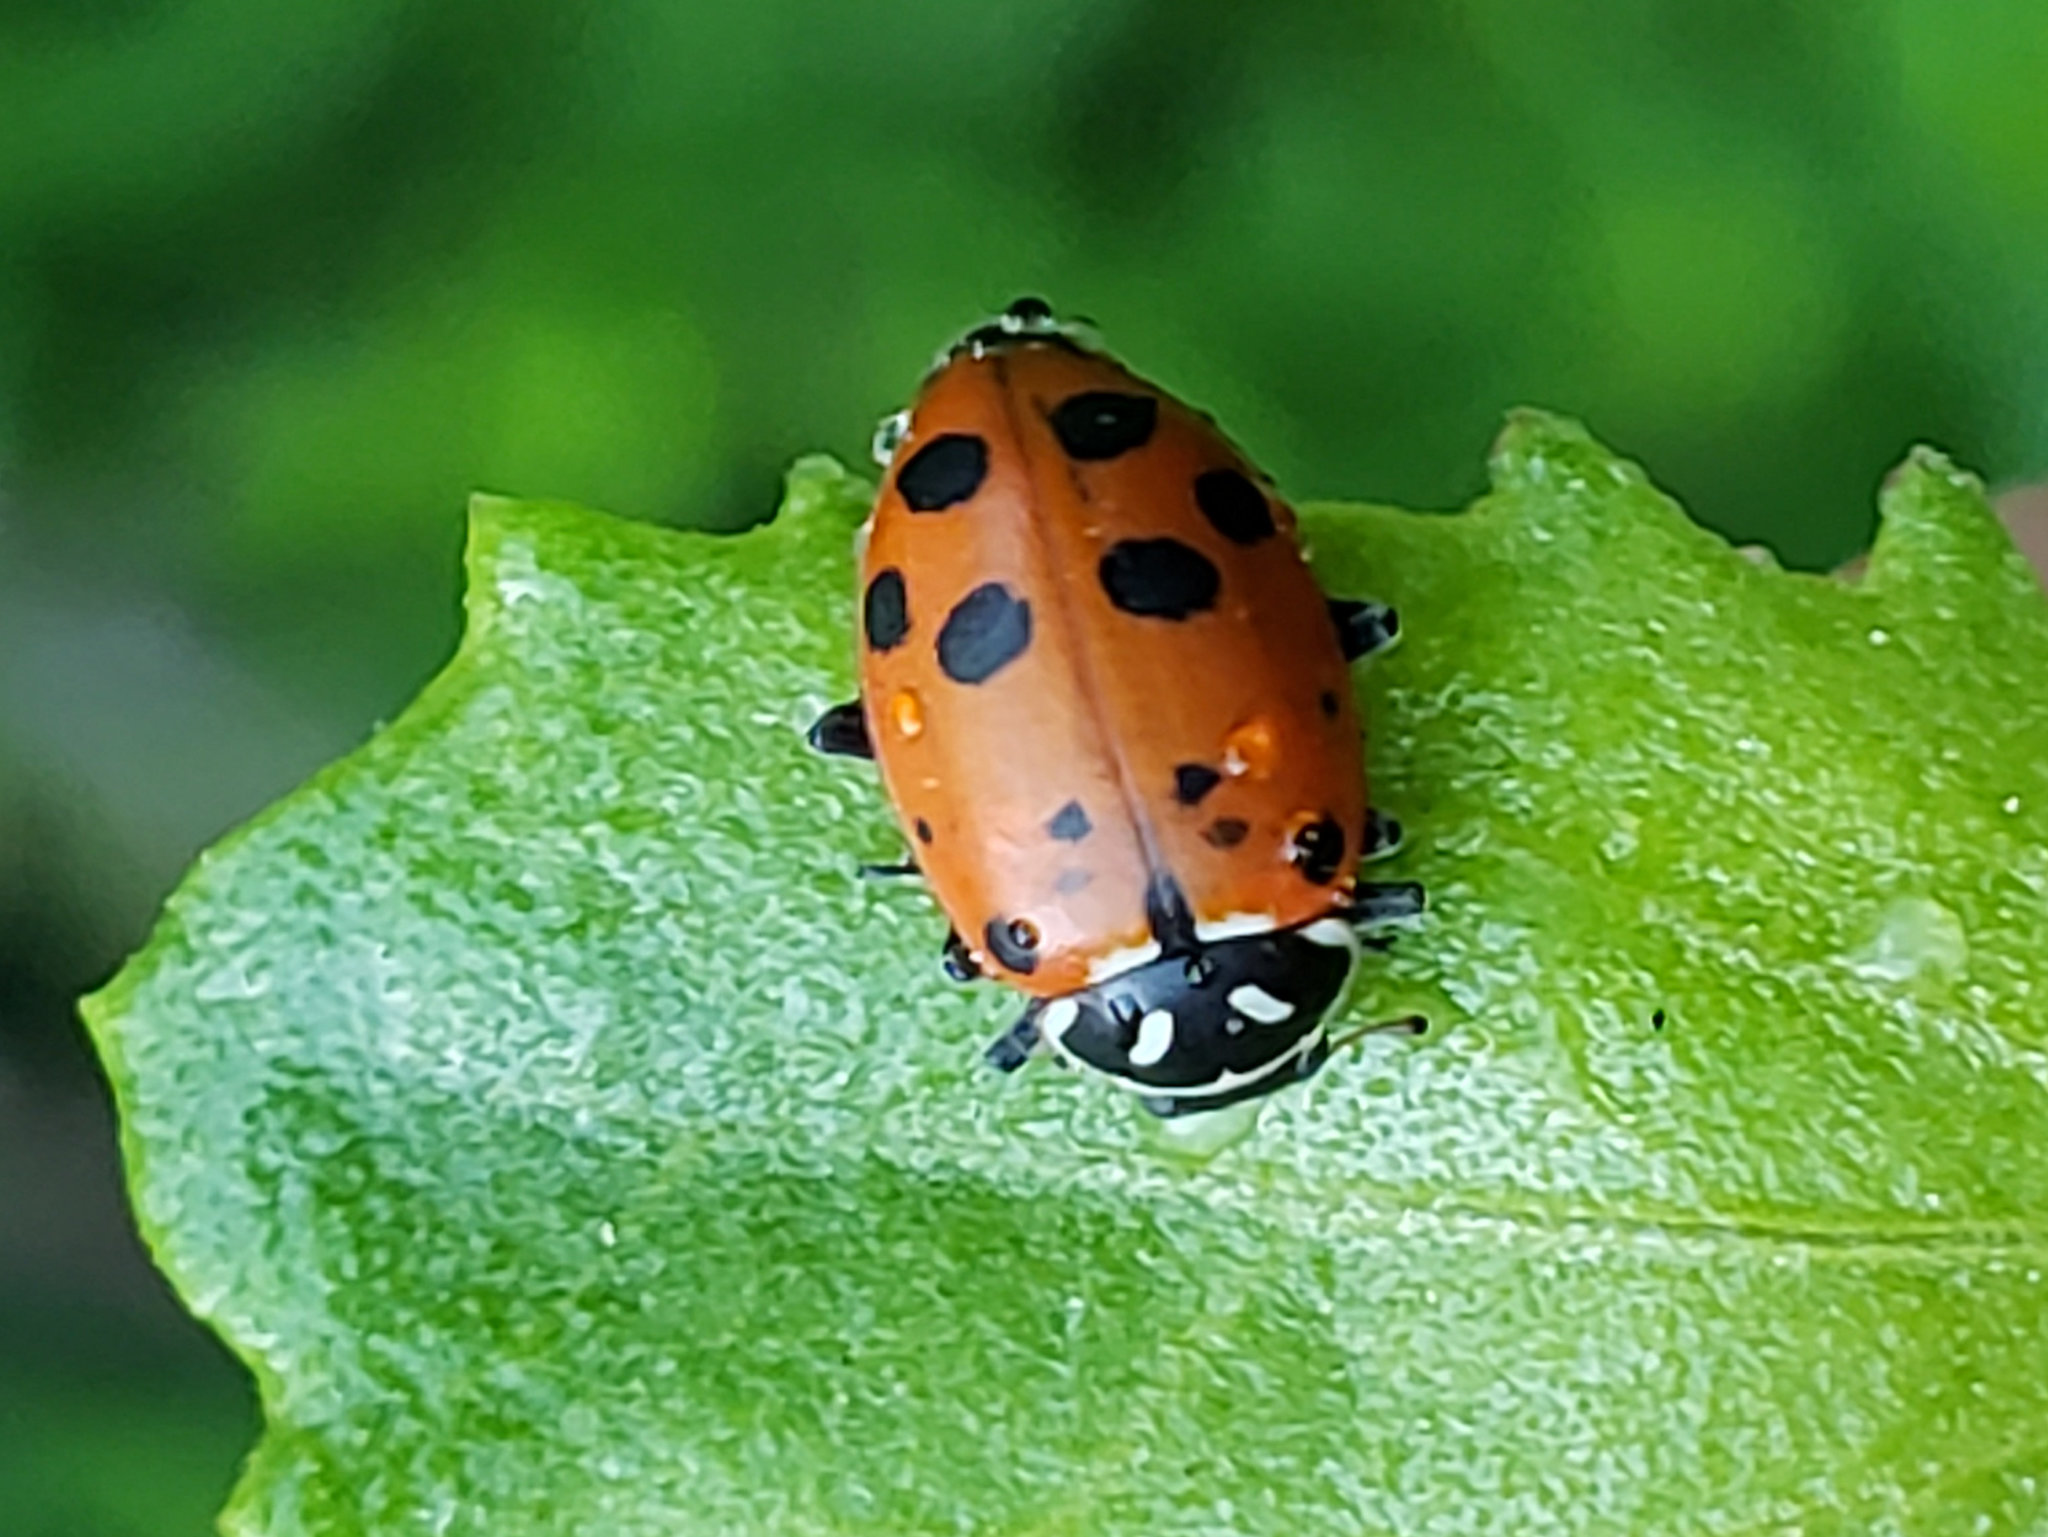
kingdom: Animalia
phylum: Arthropoda
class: Insecta
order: Coleoptera
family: Coccinellidae
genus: Hippodamia
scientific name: Hippodamia convergens
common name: Convergent lady beetle
